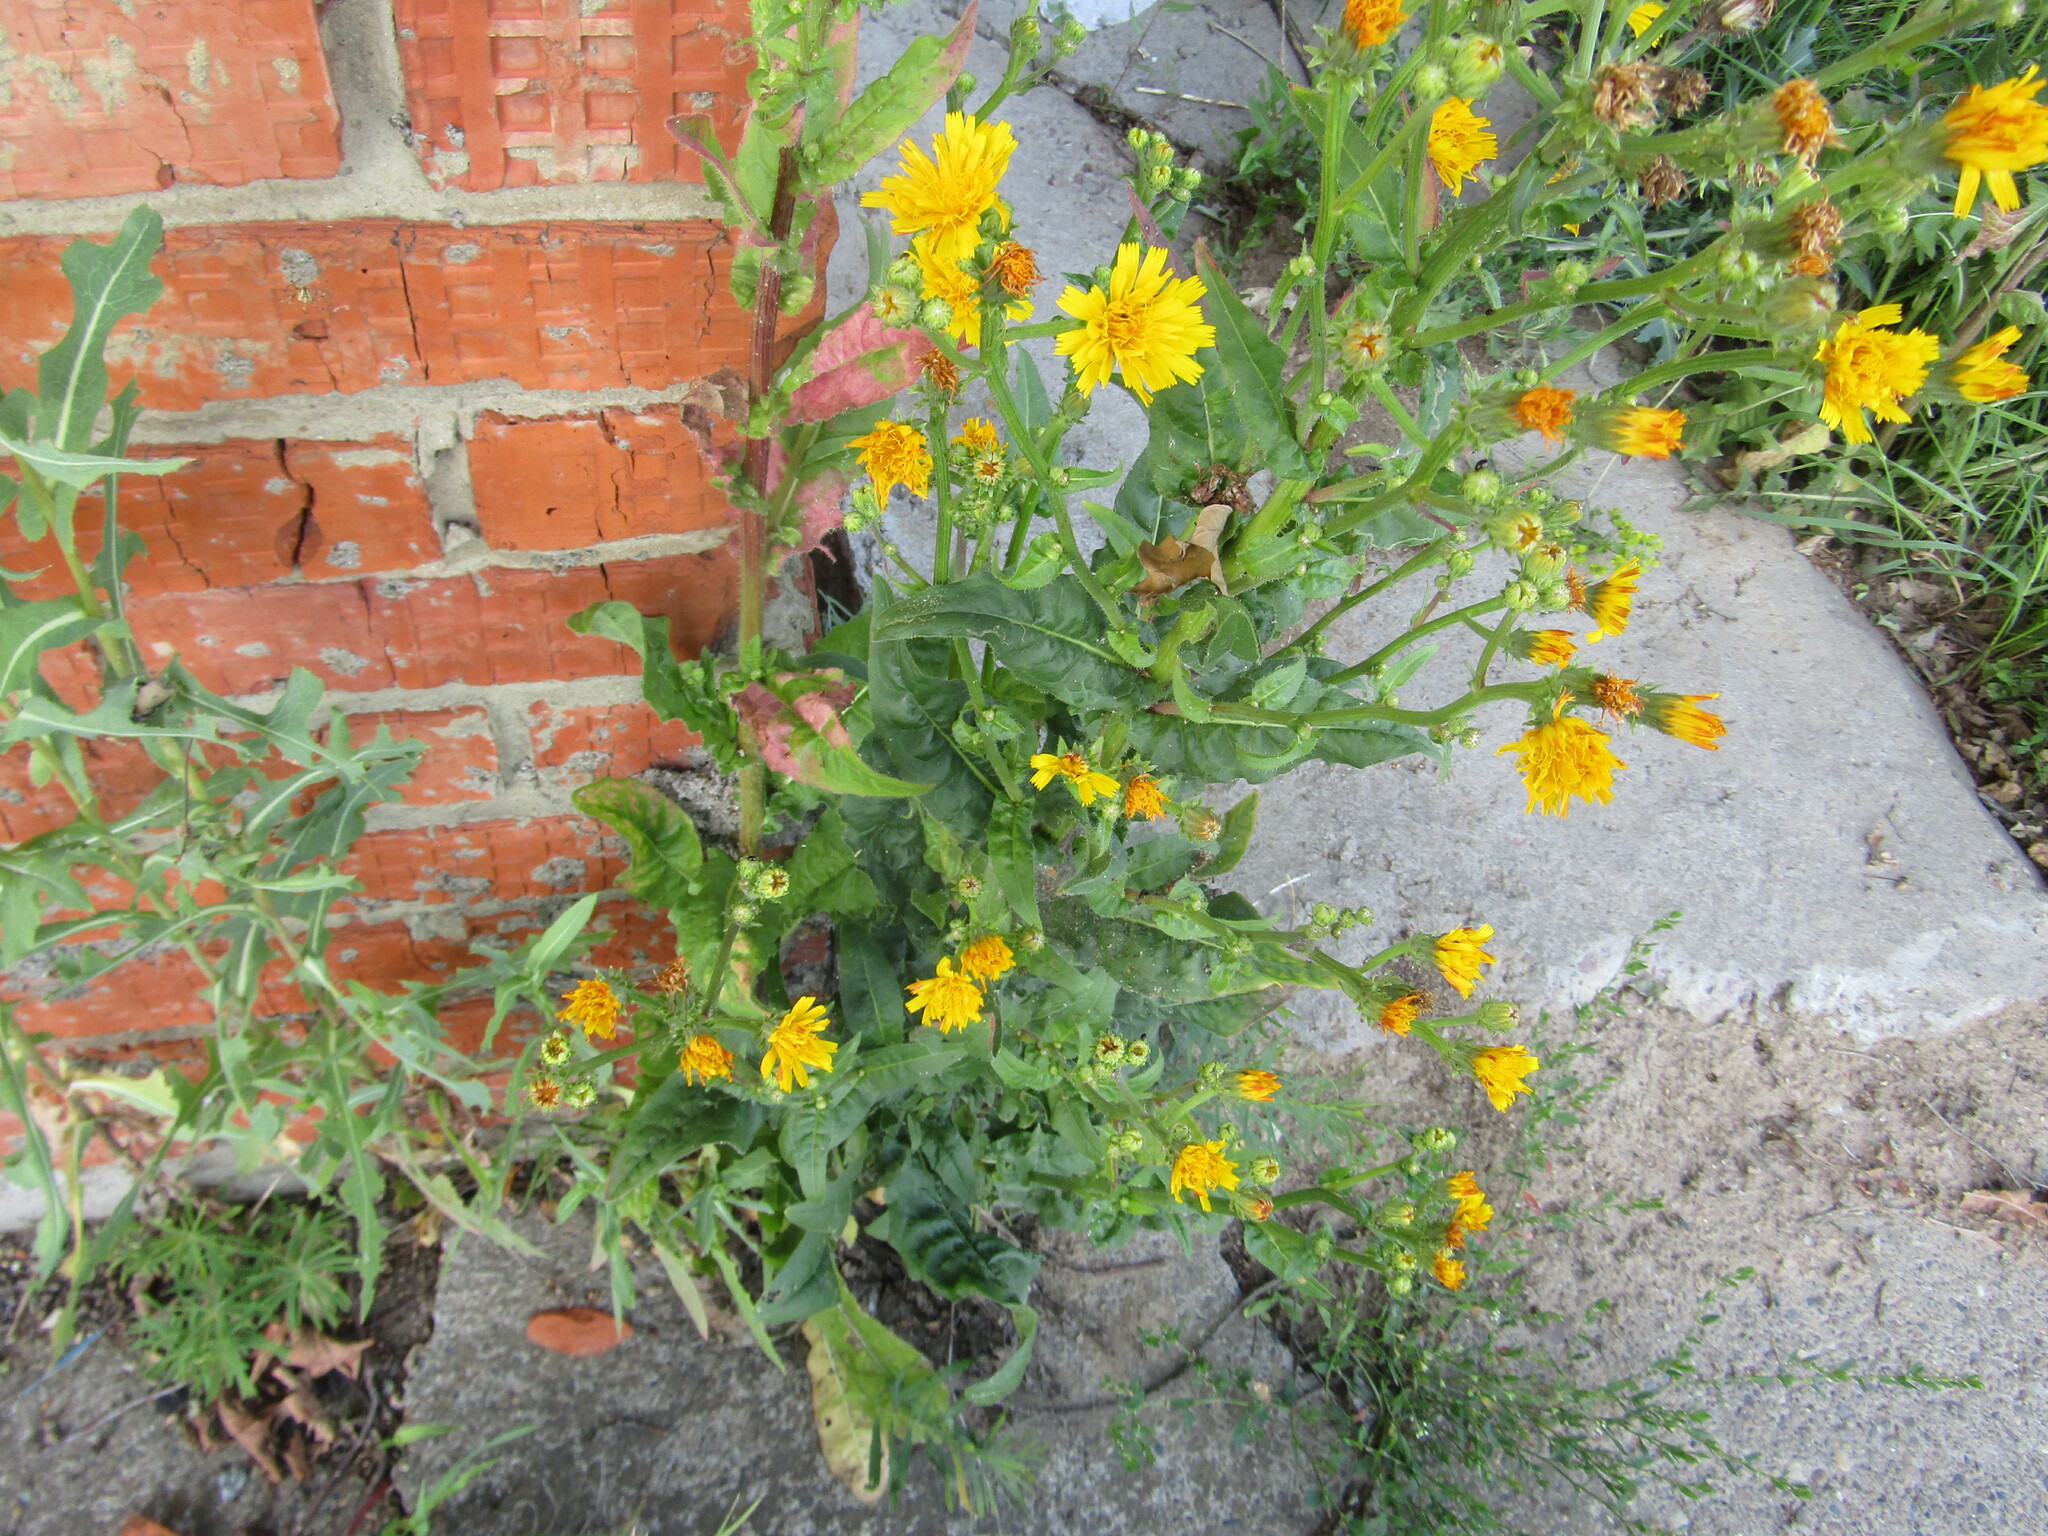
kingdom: Plantae
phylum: Tracheophyta
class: Magnoliopsida
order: Asterales
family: Asteraceae
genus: Picris
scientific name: Picris hieracioides
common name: Hawkweed oxtongue
